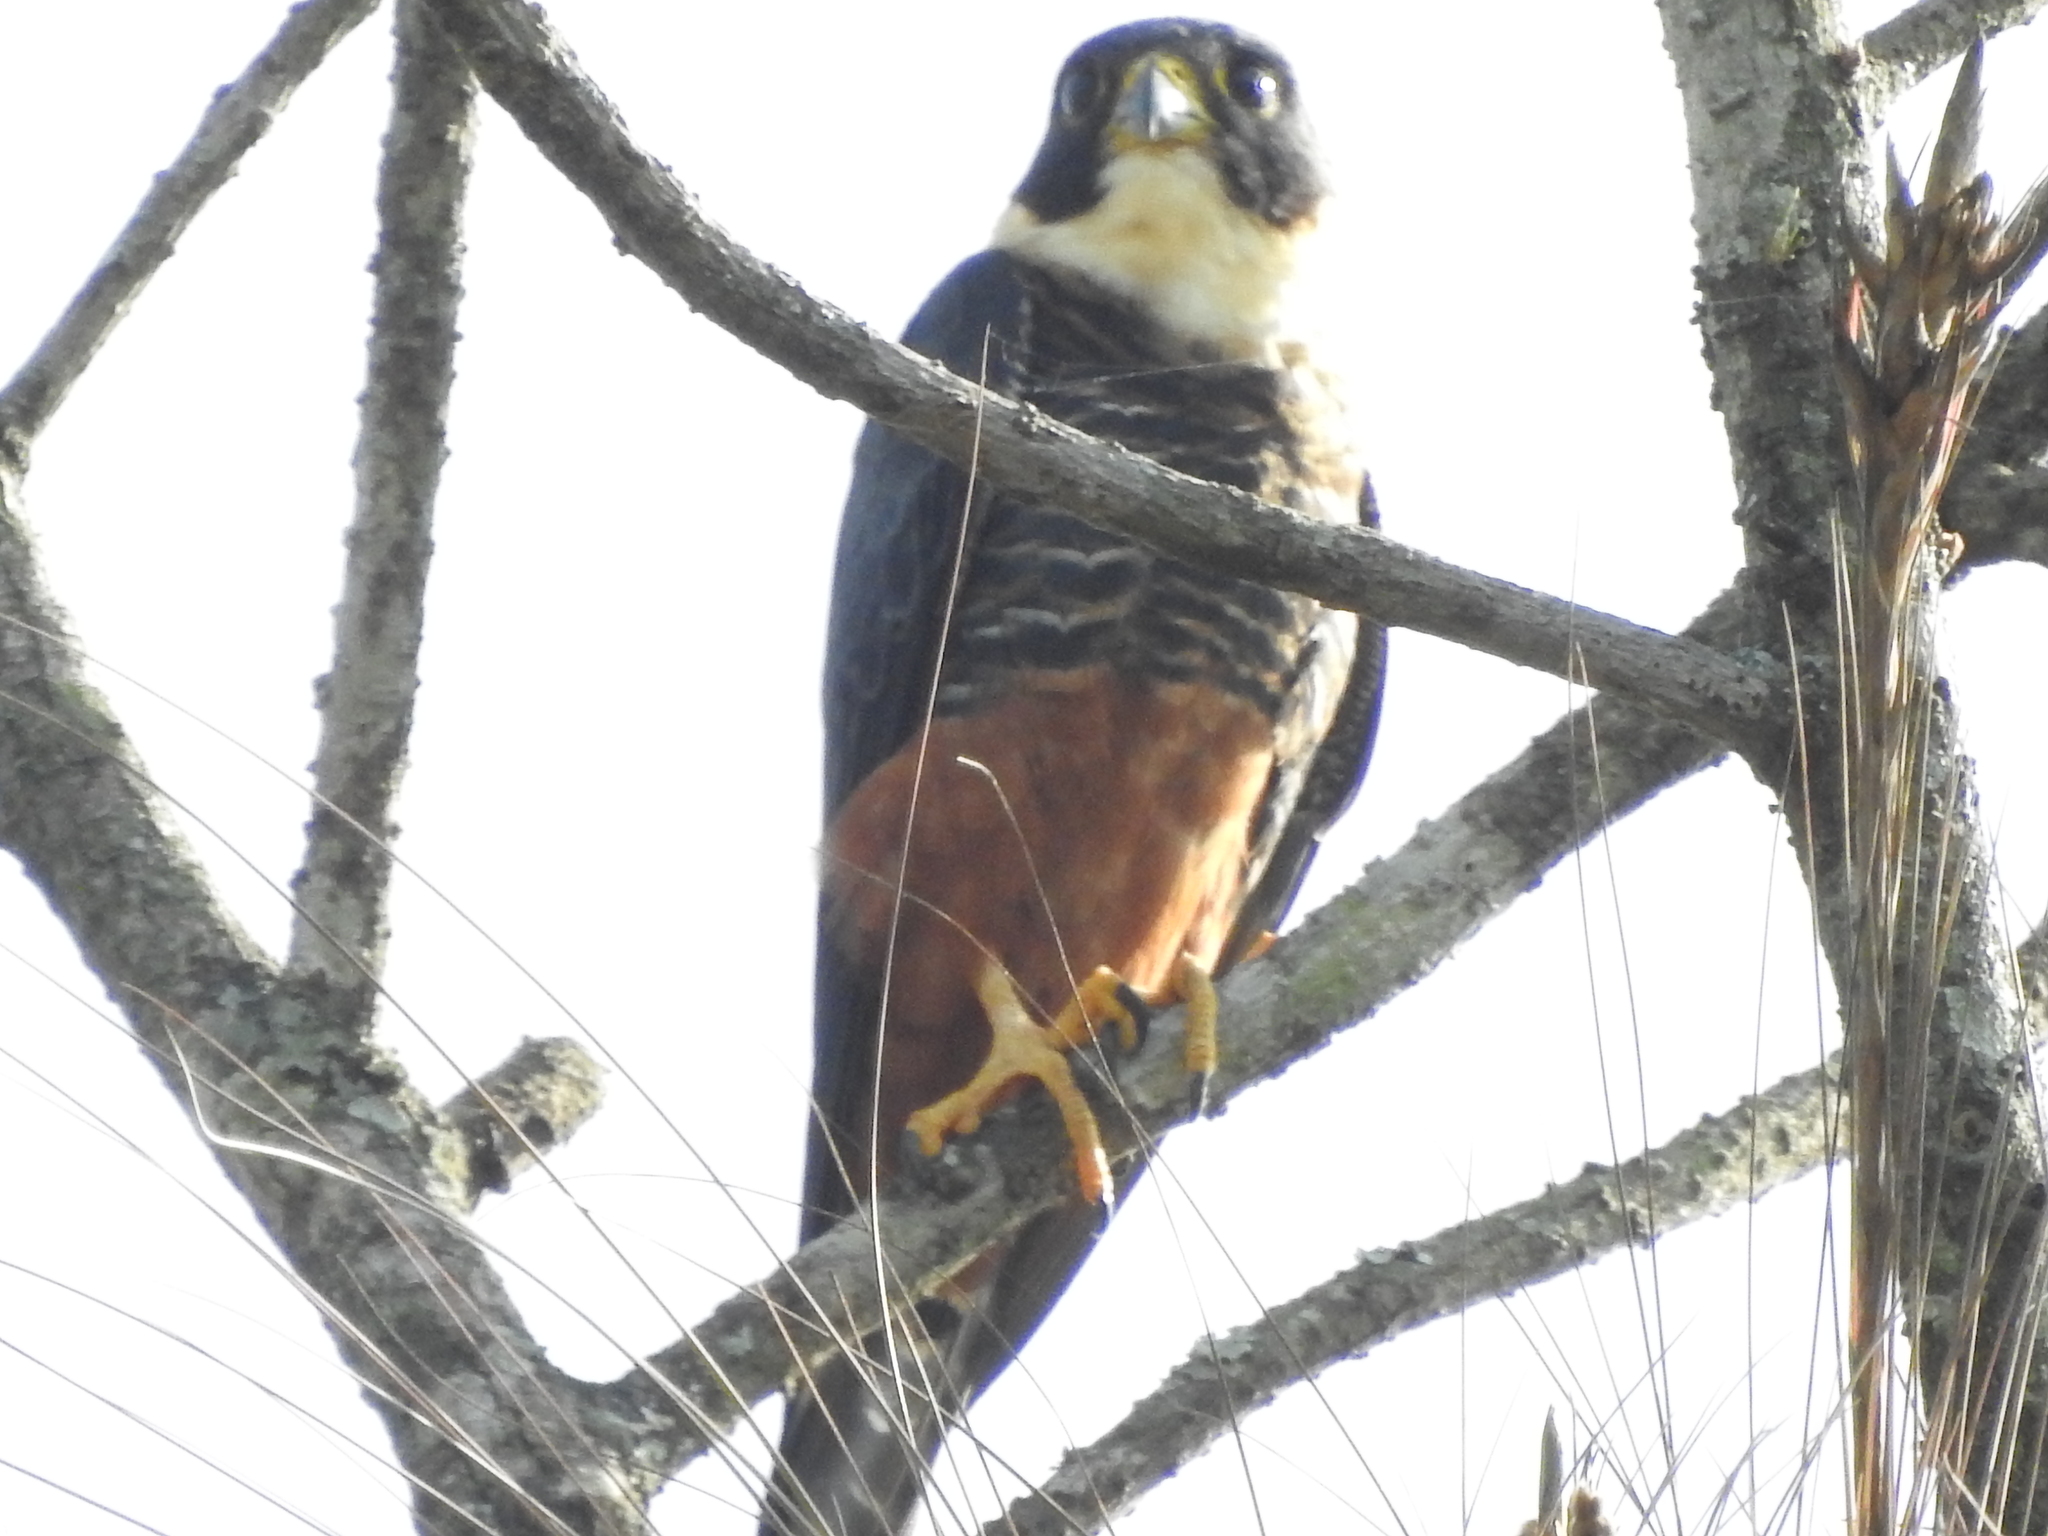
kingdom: Animalia
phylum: Chordata
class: Aves
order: Falconiformes
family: Falconidae
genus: Falco
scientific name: Falco rufigularis
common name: Bat falcon
